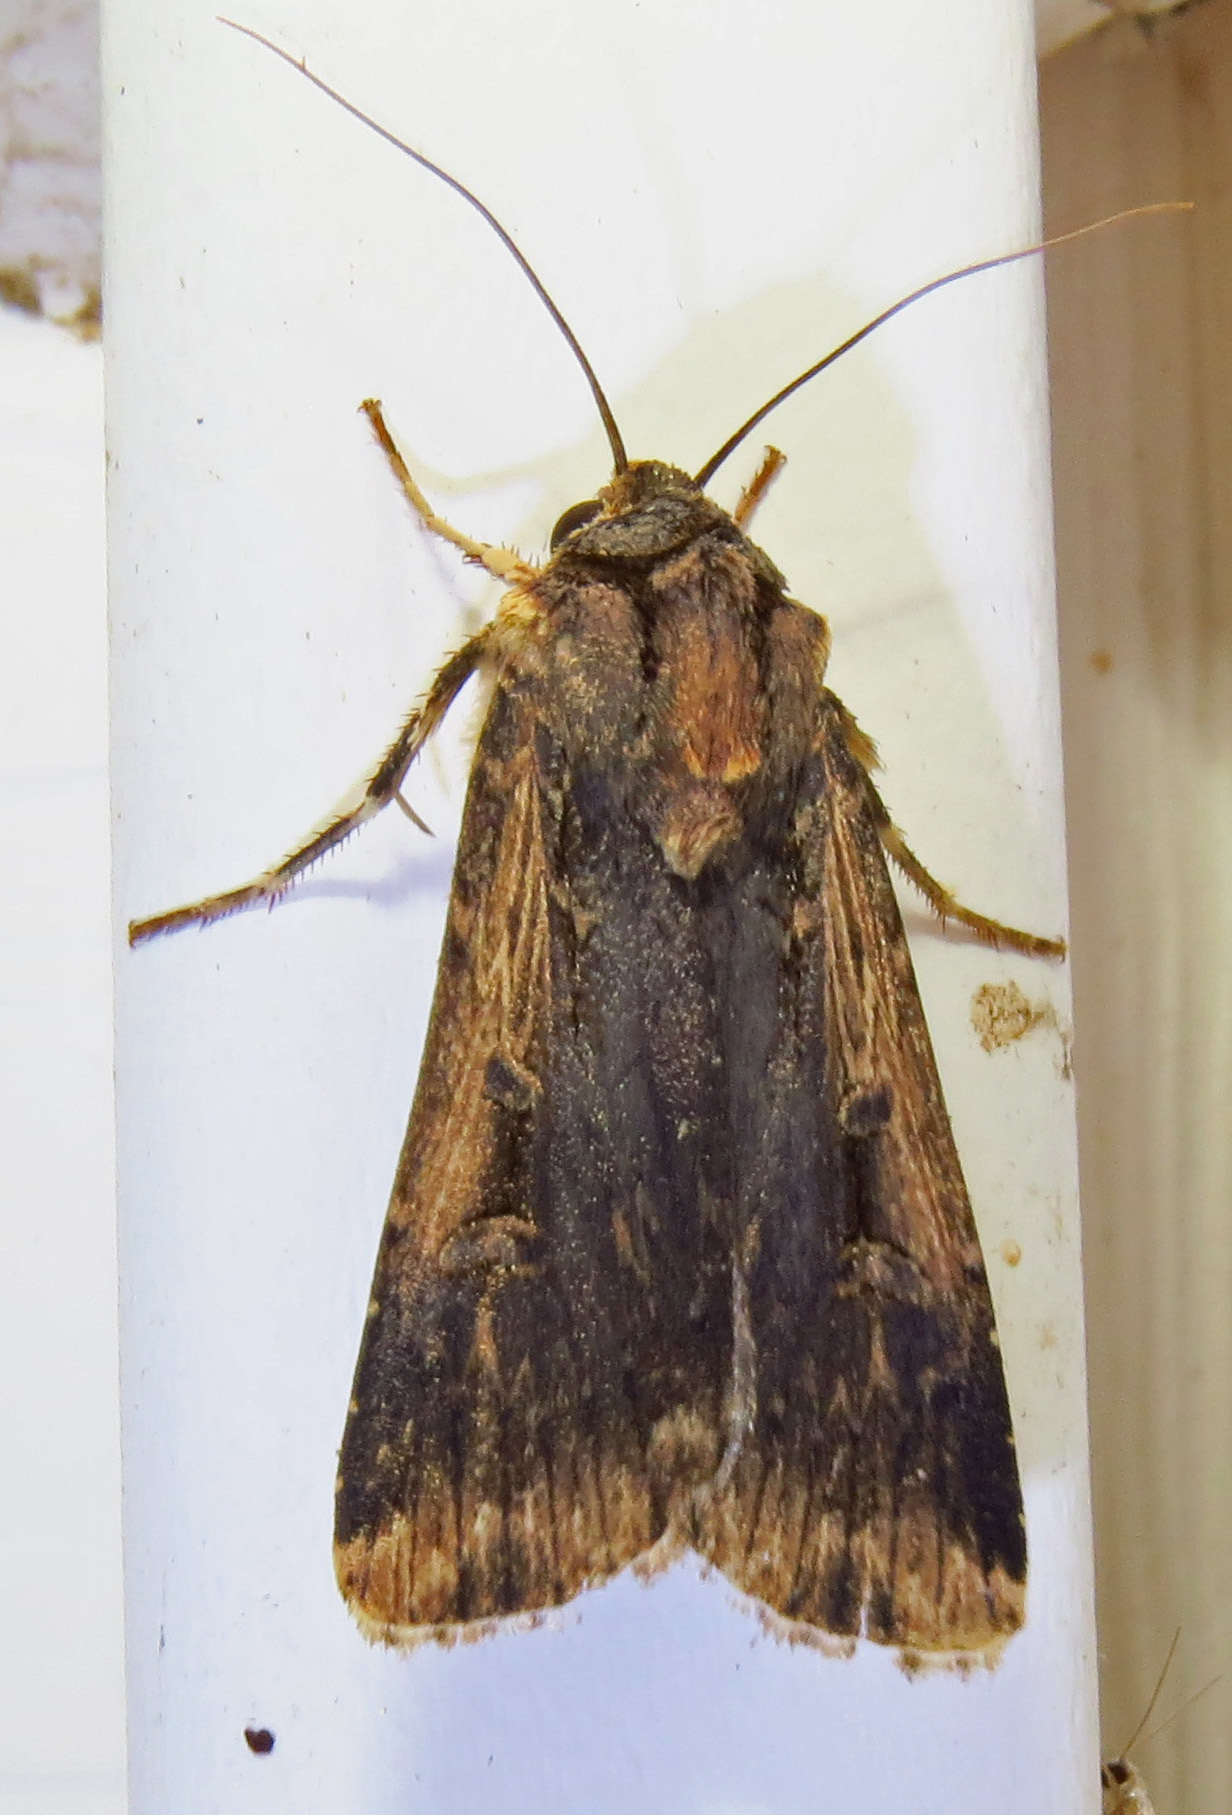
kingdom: Animalia
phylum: Arthropoda
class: Insecta
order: Lepidoptera
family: Noctuidae
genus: Feltia
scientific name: Feltia subterranea
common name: Granulate cutworm
